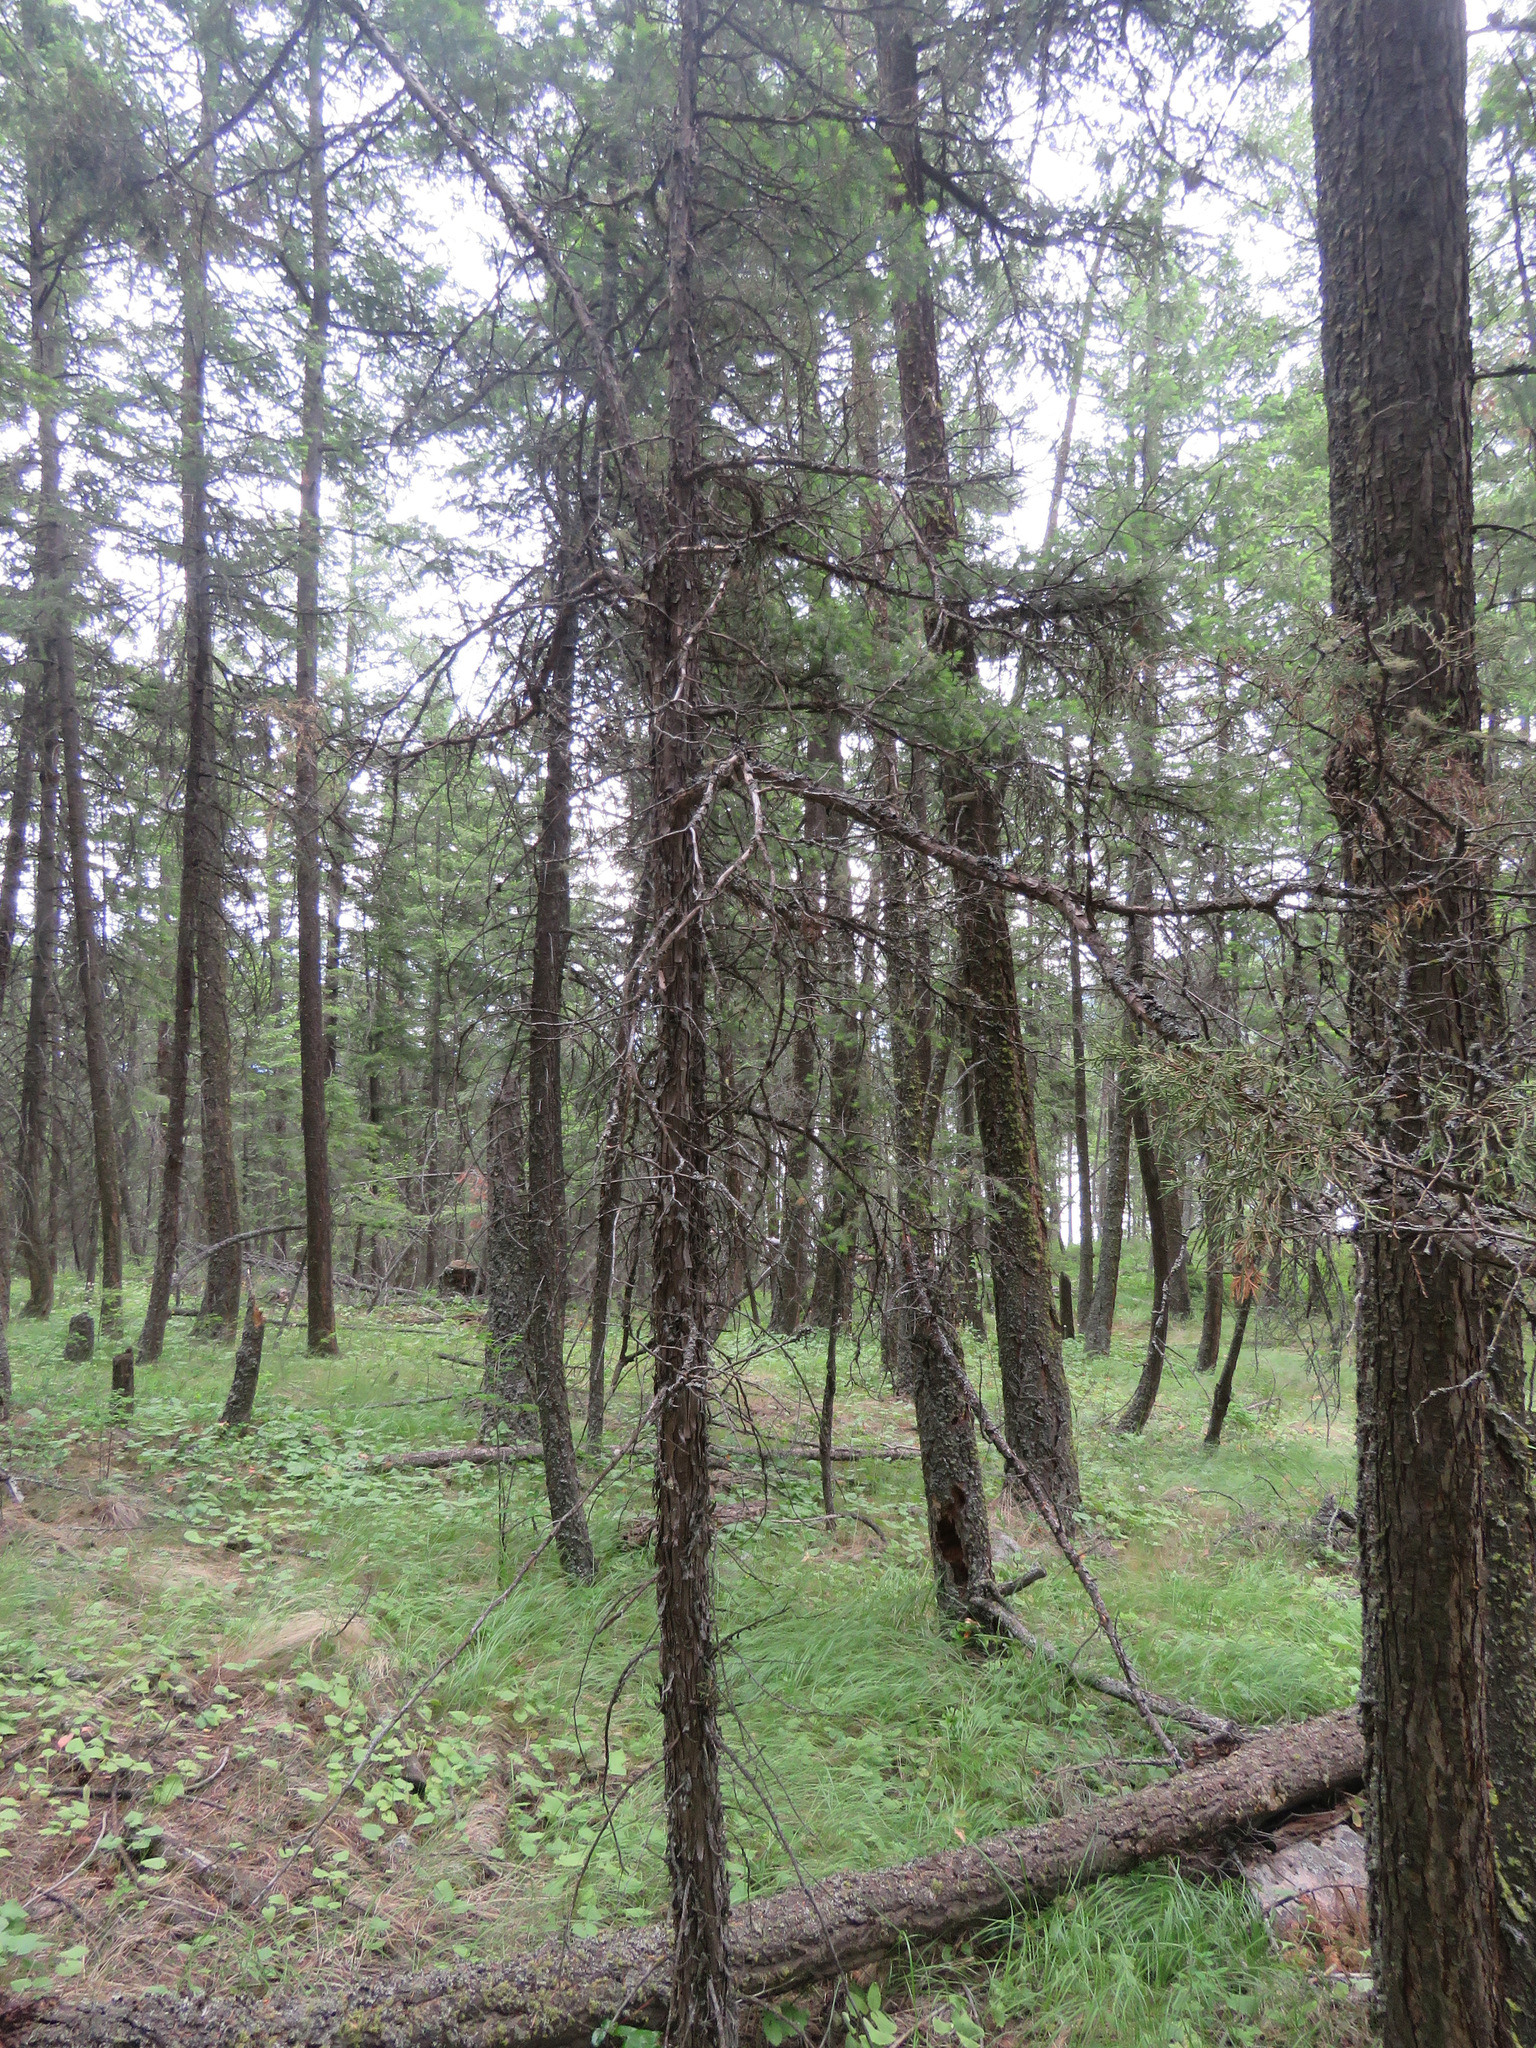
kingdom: Plantae
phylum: Tracheophyta
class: Pinopsida
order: Pinales
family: Cupressaceae
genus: Juniperus
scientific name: Juniperus scopulorum
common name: Rocky mountain juniper
